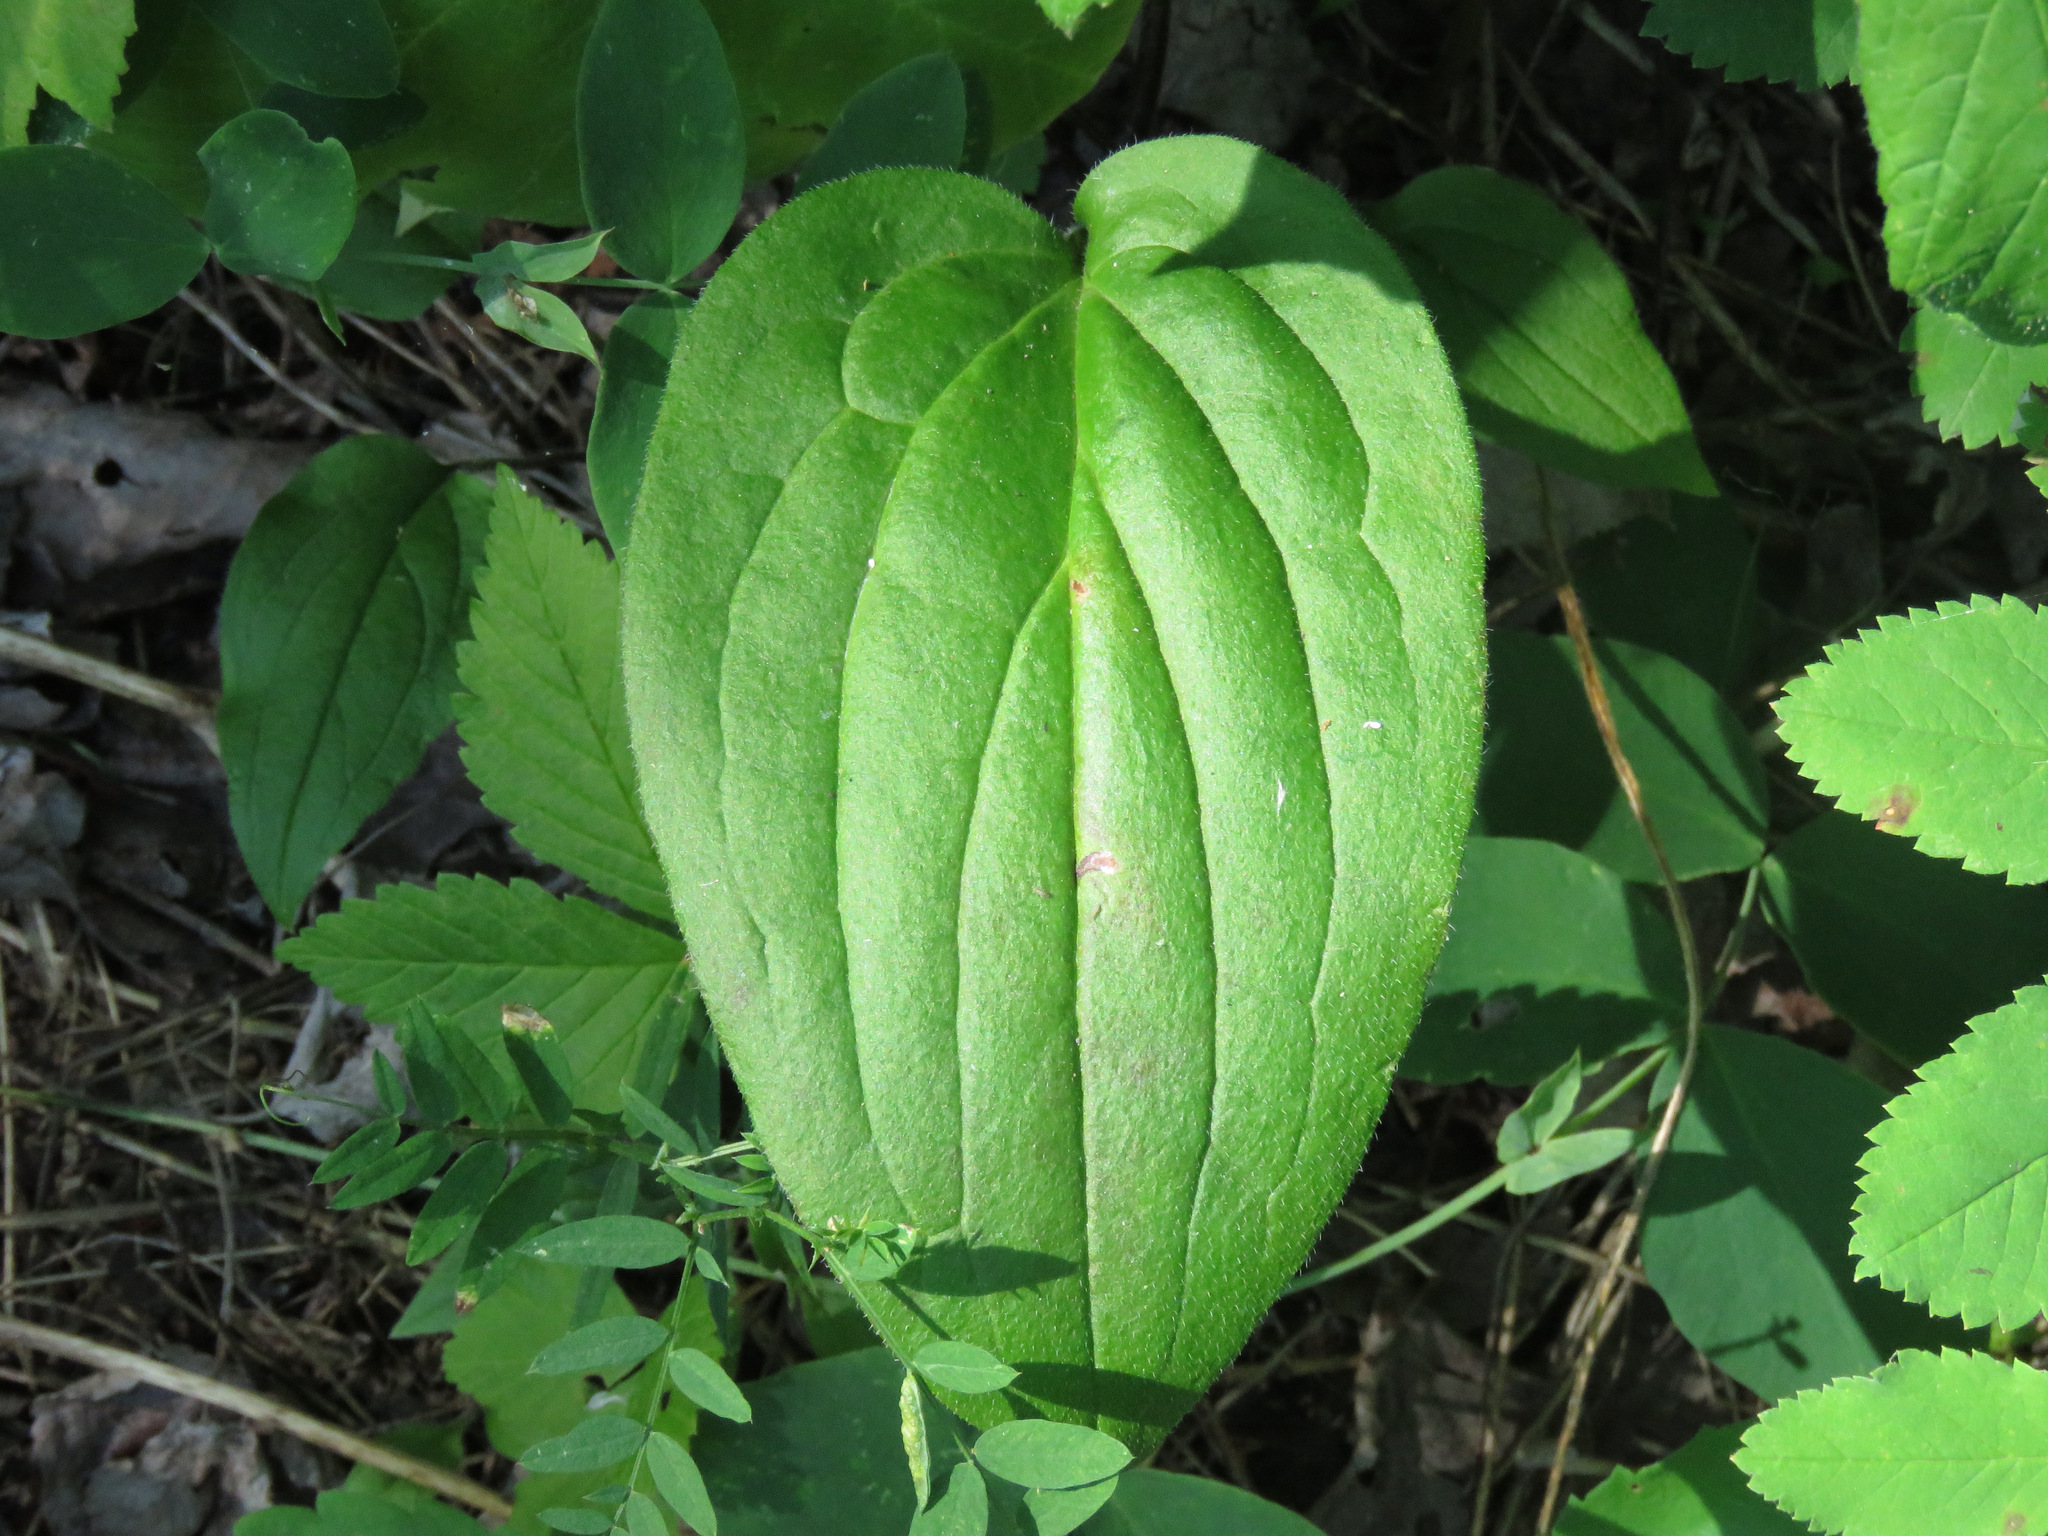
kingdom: Plantae
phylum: Tracheophyta
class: Magnoliopsida
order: Boraginales
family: Boraginaceae
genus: Mertensia
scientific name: Mertensia paniculata
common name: Panicled bluebells
